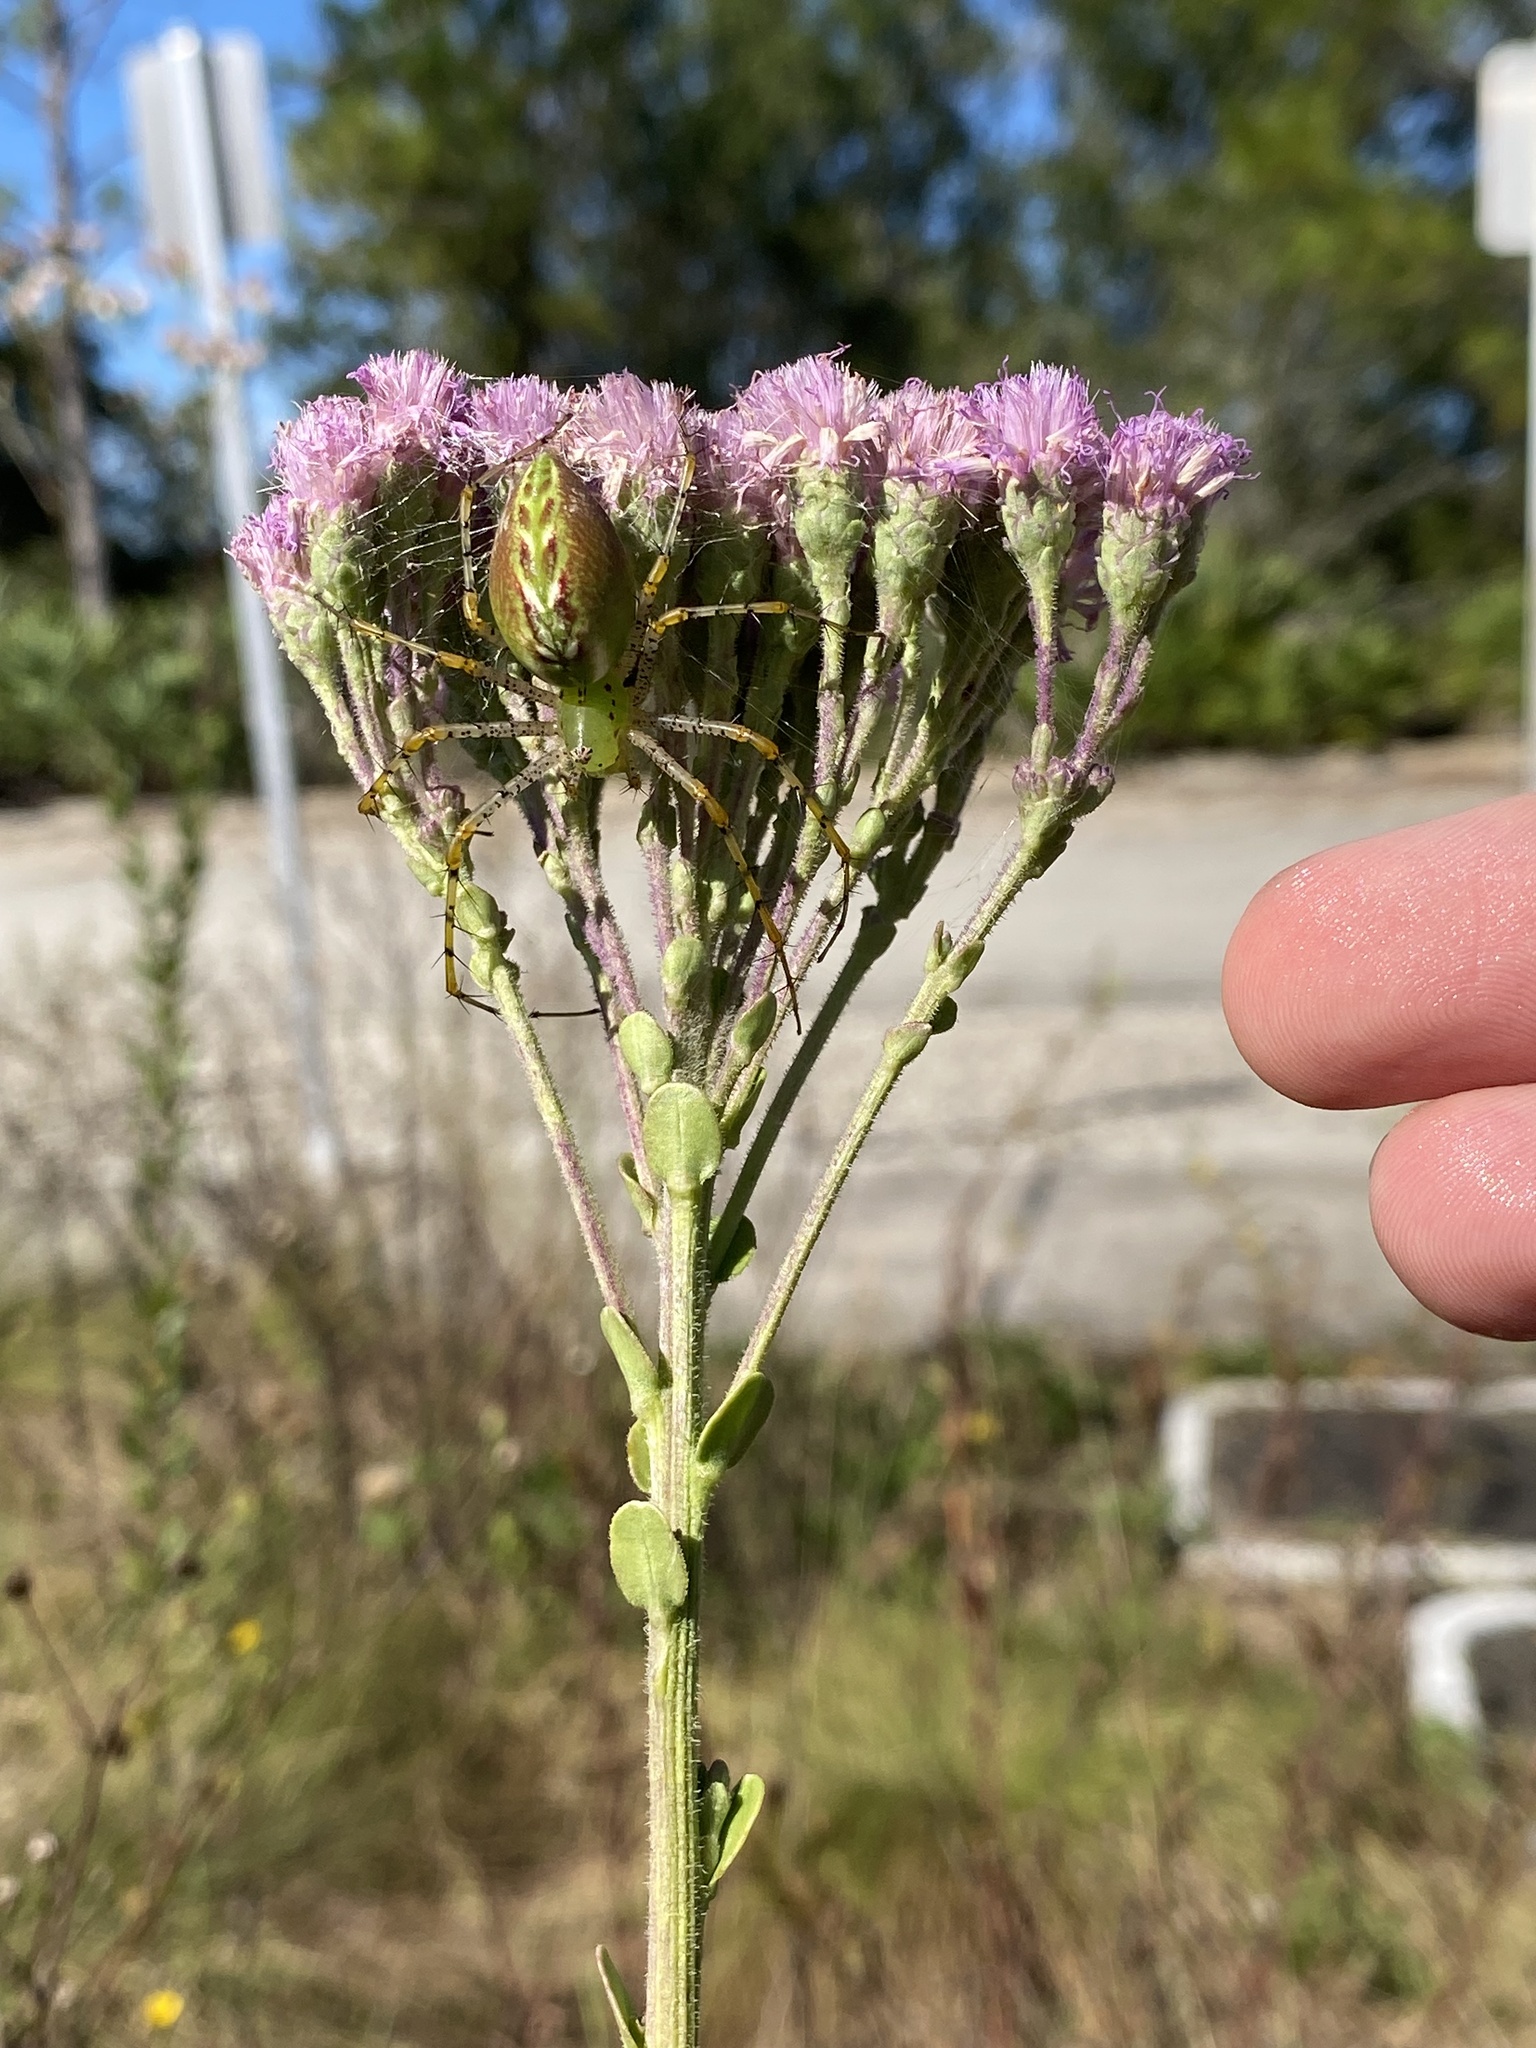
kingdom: Animalia
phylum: Arthropoda
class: Arachnida
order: Araneae
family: Oxyopidae
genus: Peucetia
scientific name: Peucetia viridans
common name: Lynx spiders
